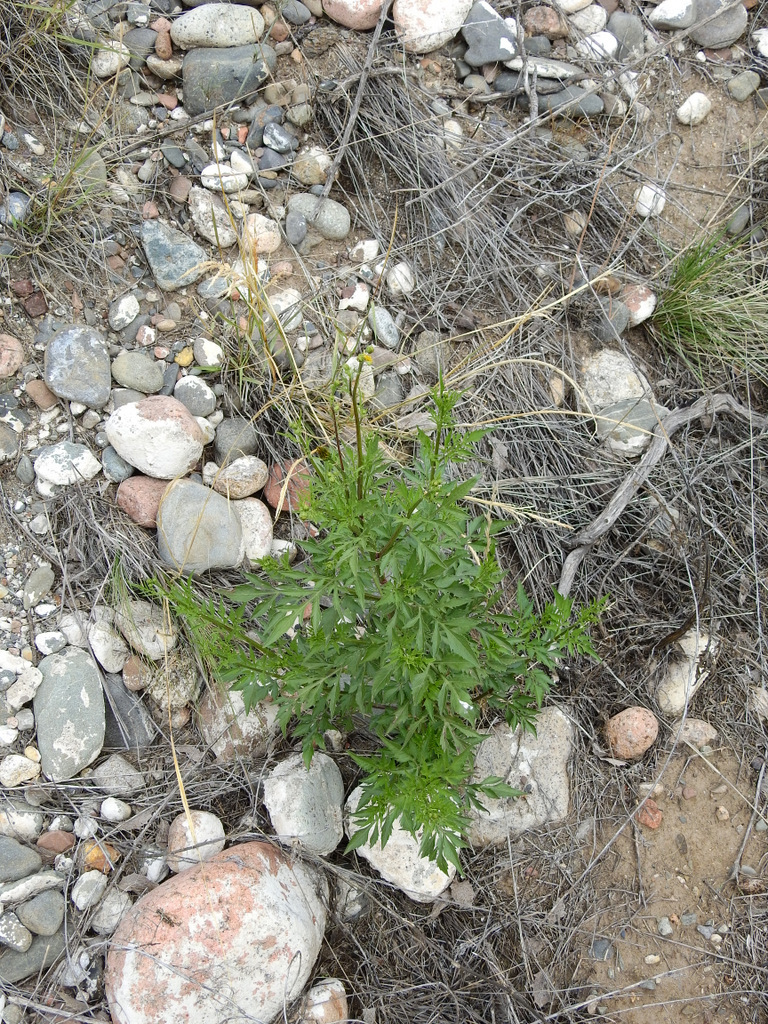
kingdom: Plantae
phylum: Tracheophyta
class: Magnoliopsida
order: Asterales
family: Asteraceae
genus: Bidens
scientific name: Bidens subalternans
